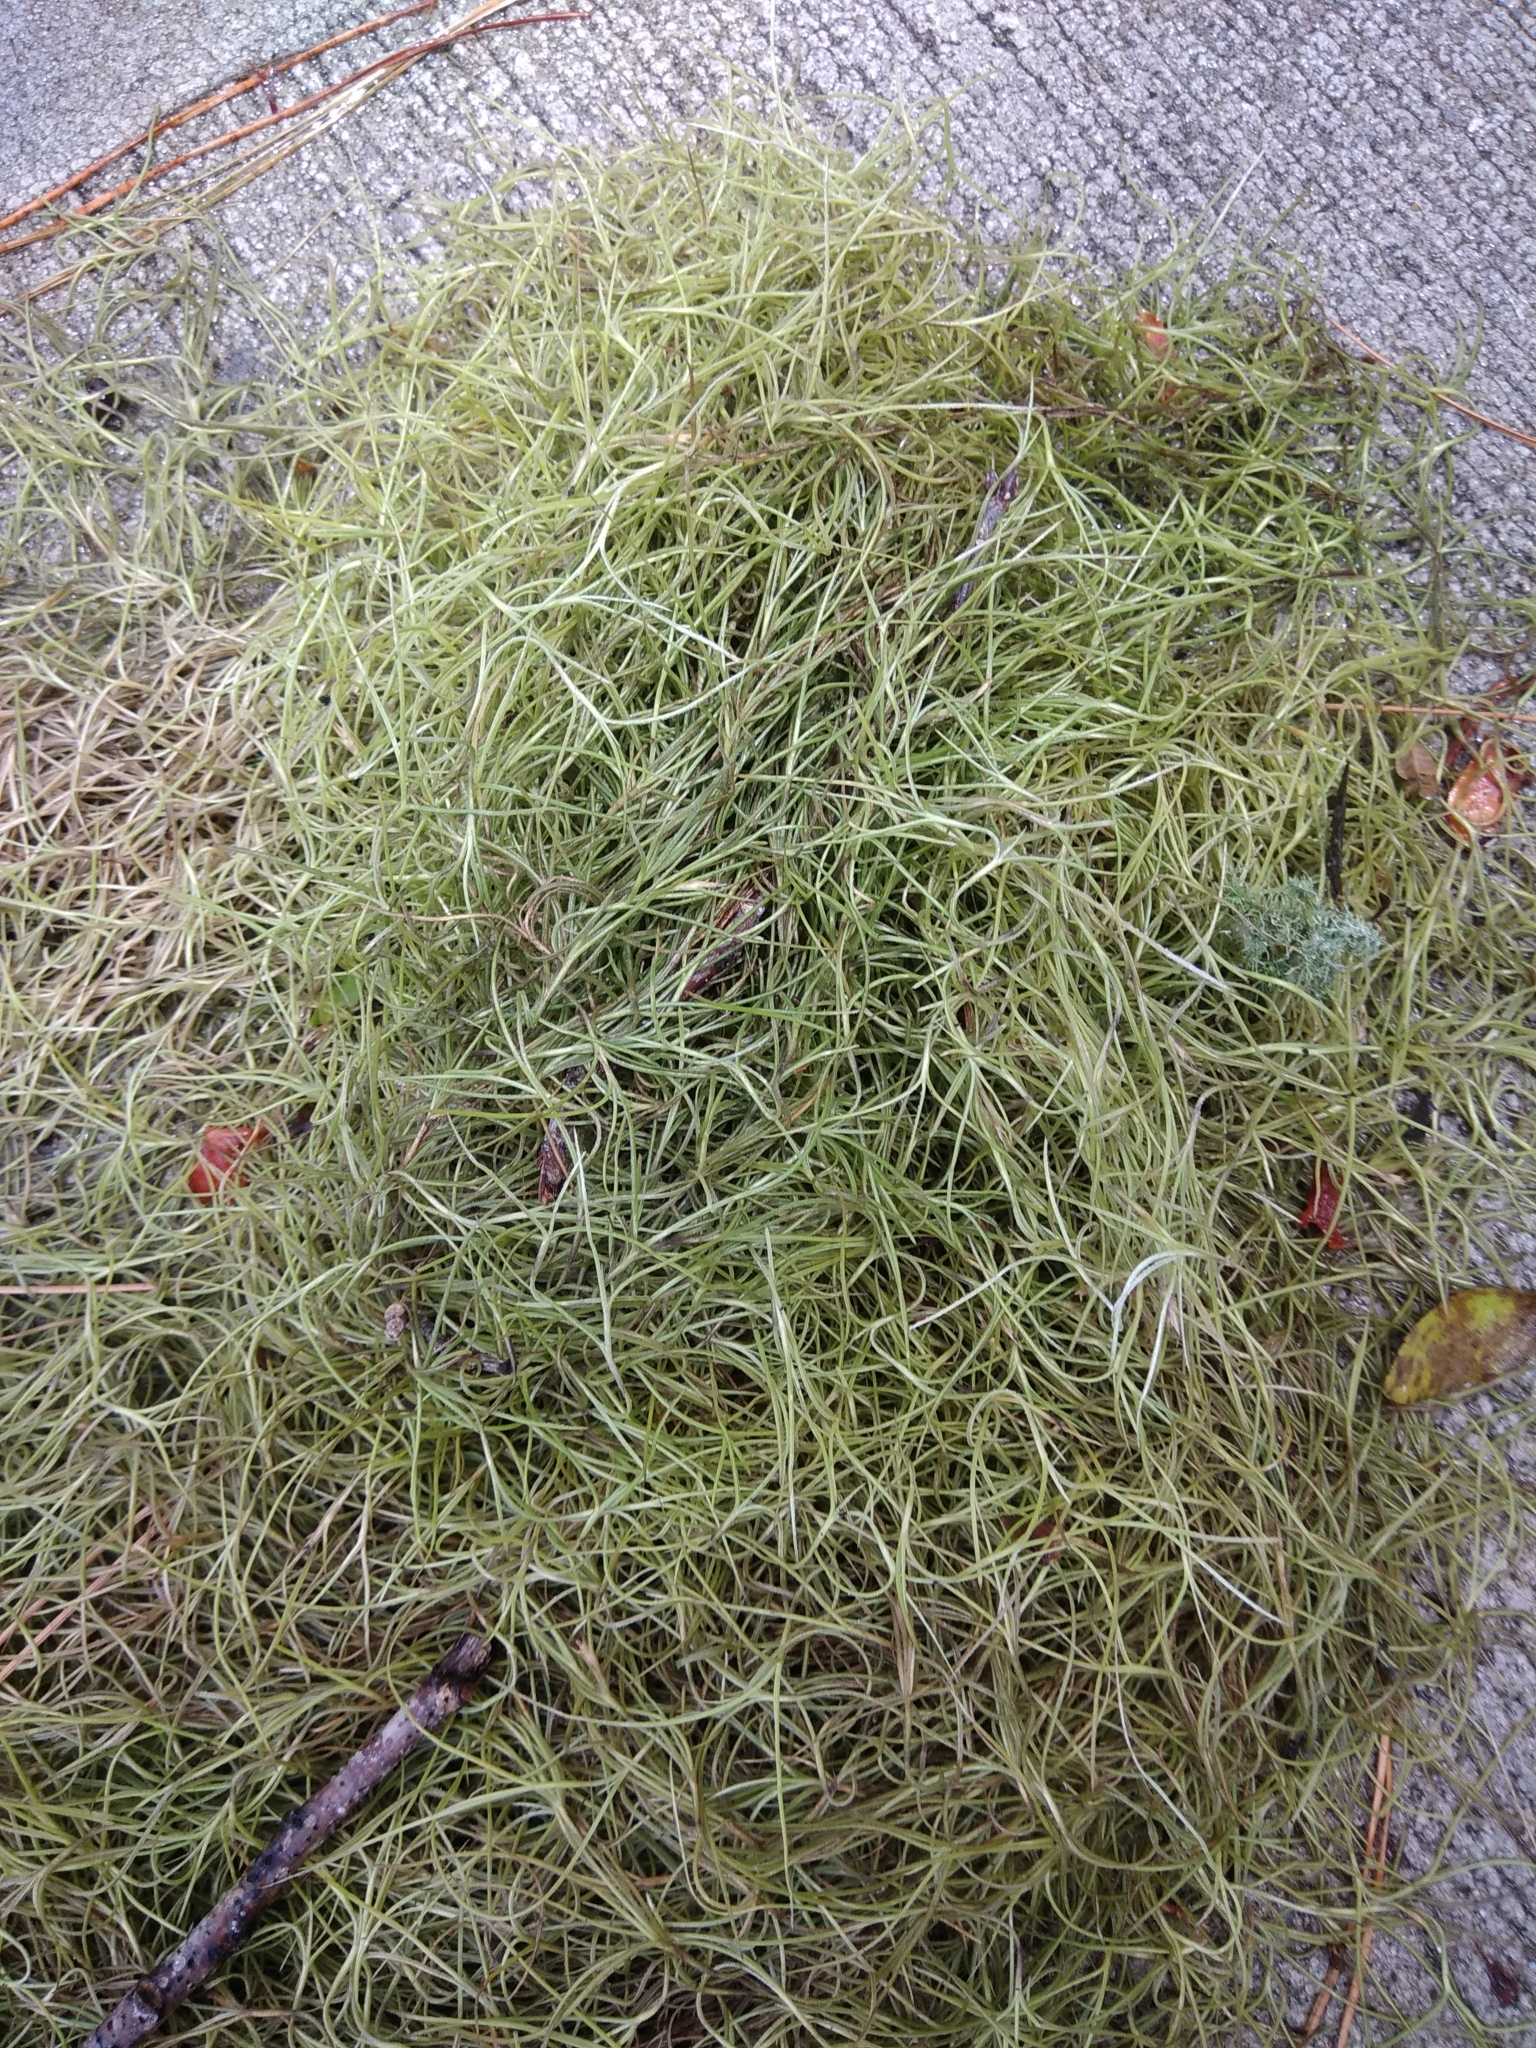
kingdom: Plantae
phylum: Tracheophyta
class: Liliopsida
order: Poales
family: Bromeliaceae
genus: Tillandsia
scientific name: Tillandsia usneoides
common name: Spanish moss
